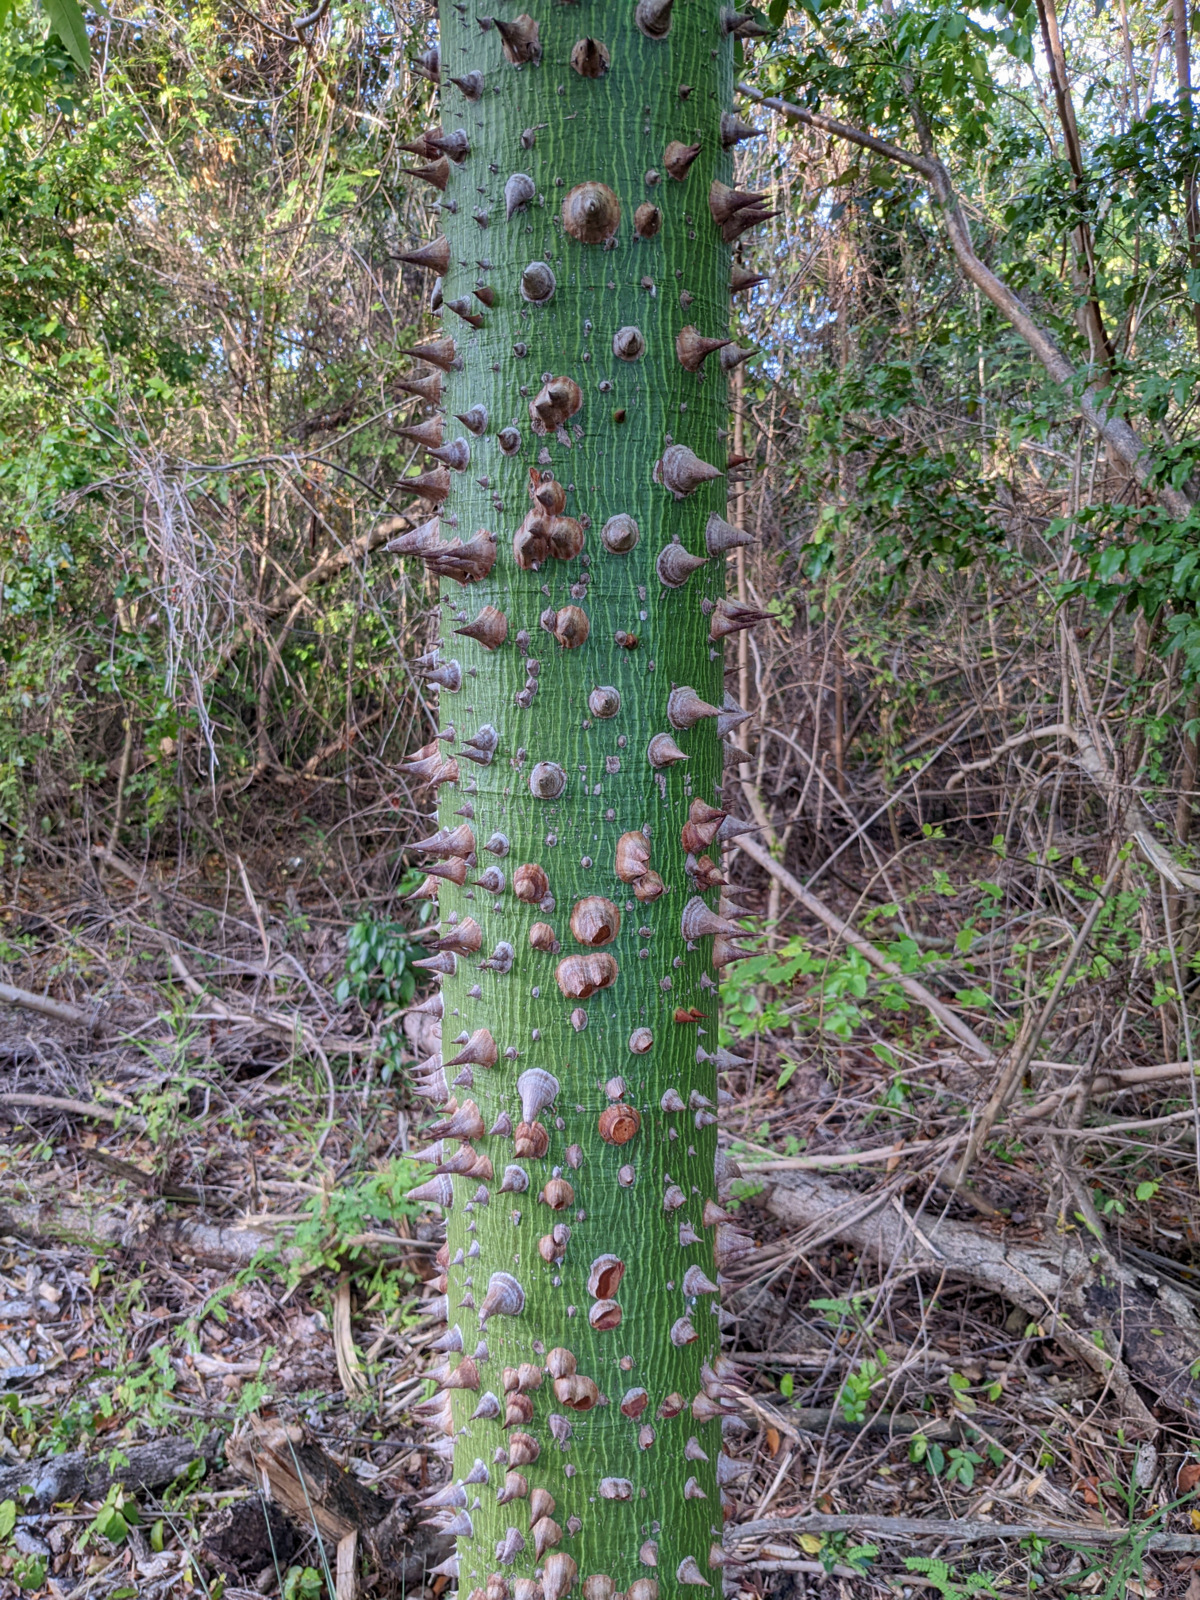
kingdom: Plantae
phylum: Tracheophyta
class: Magnoliopsida
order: Malvales
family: Malvaceae
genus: Ceiba
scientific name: Ceiba pentandra
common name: Kapok
